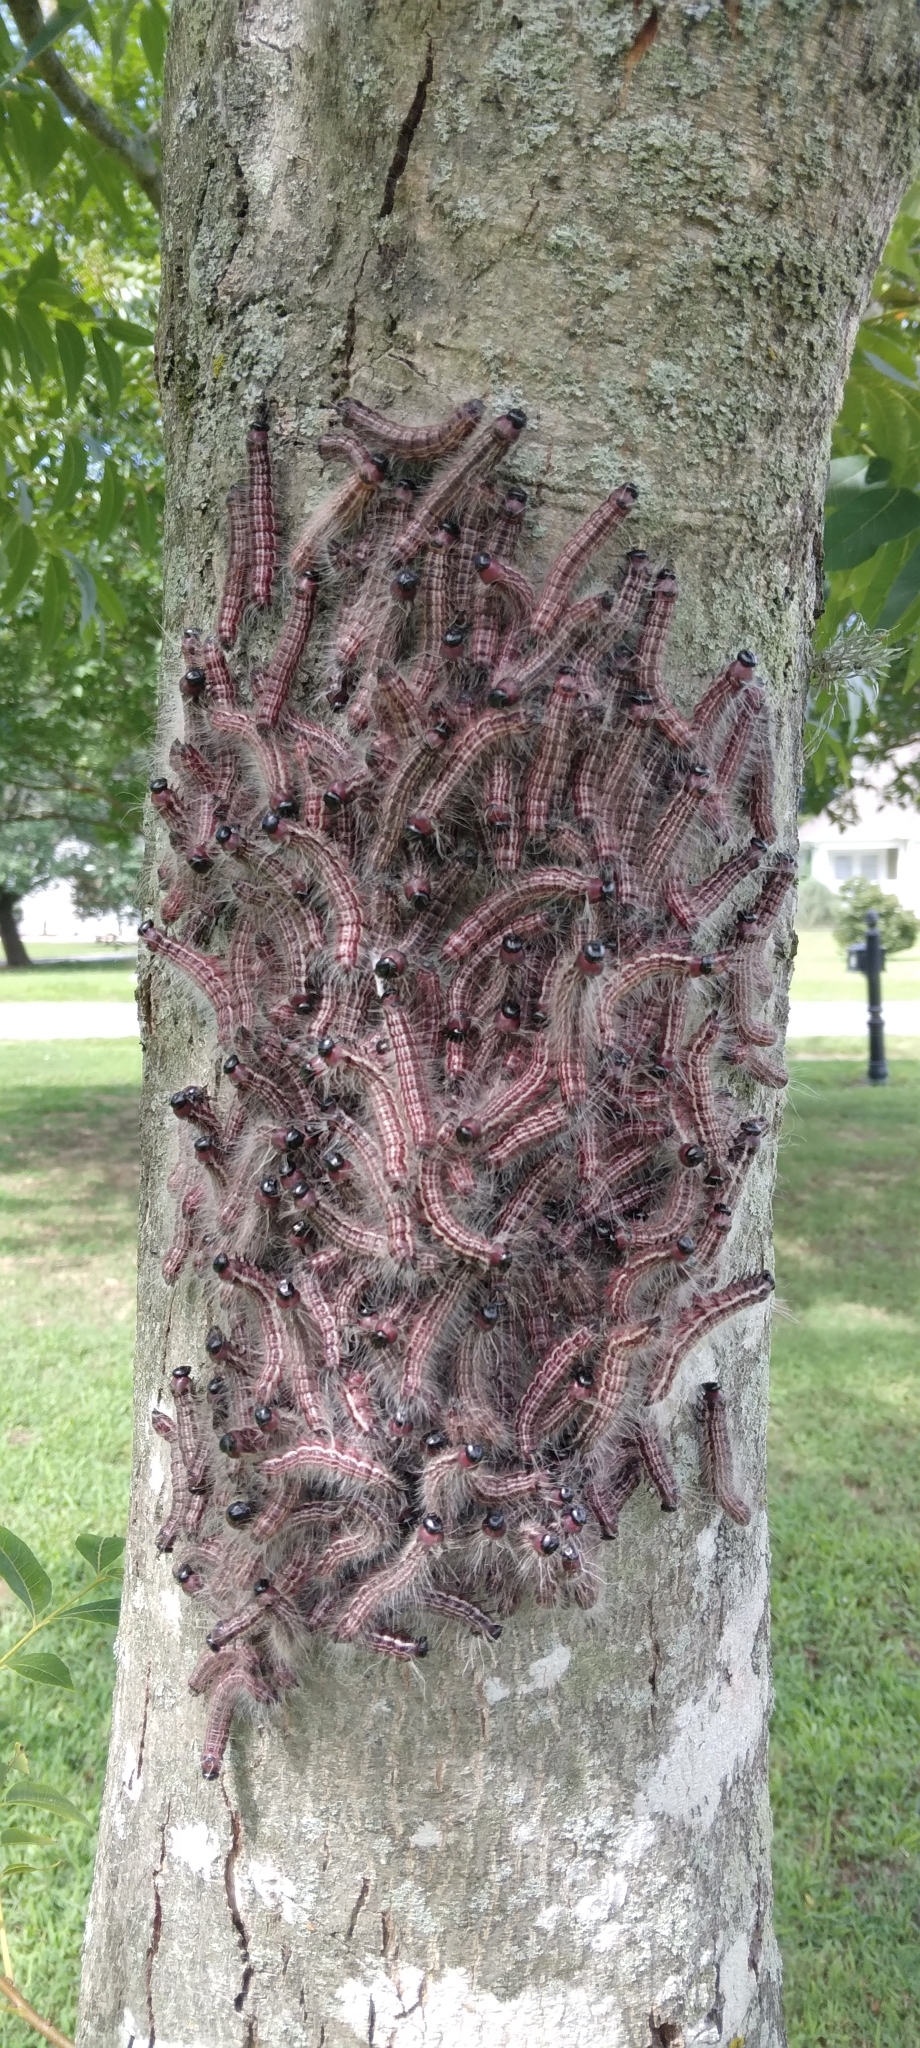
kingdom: Animalia
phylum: Arthropoda
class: Insecta
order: Lepidoptera
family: Notodontidae
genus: Datana
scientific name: Datana integerrima
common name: Walnut caterpillar
